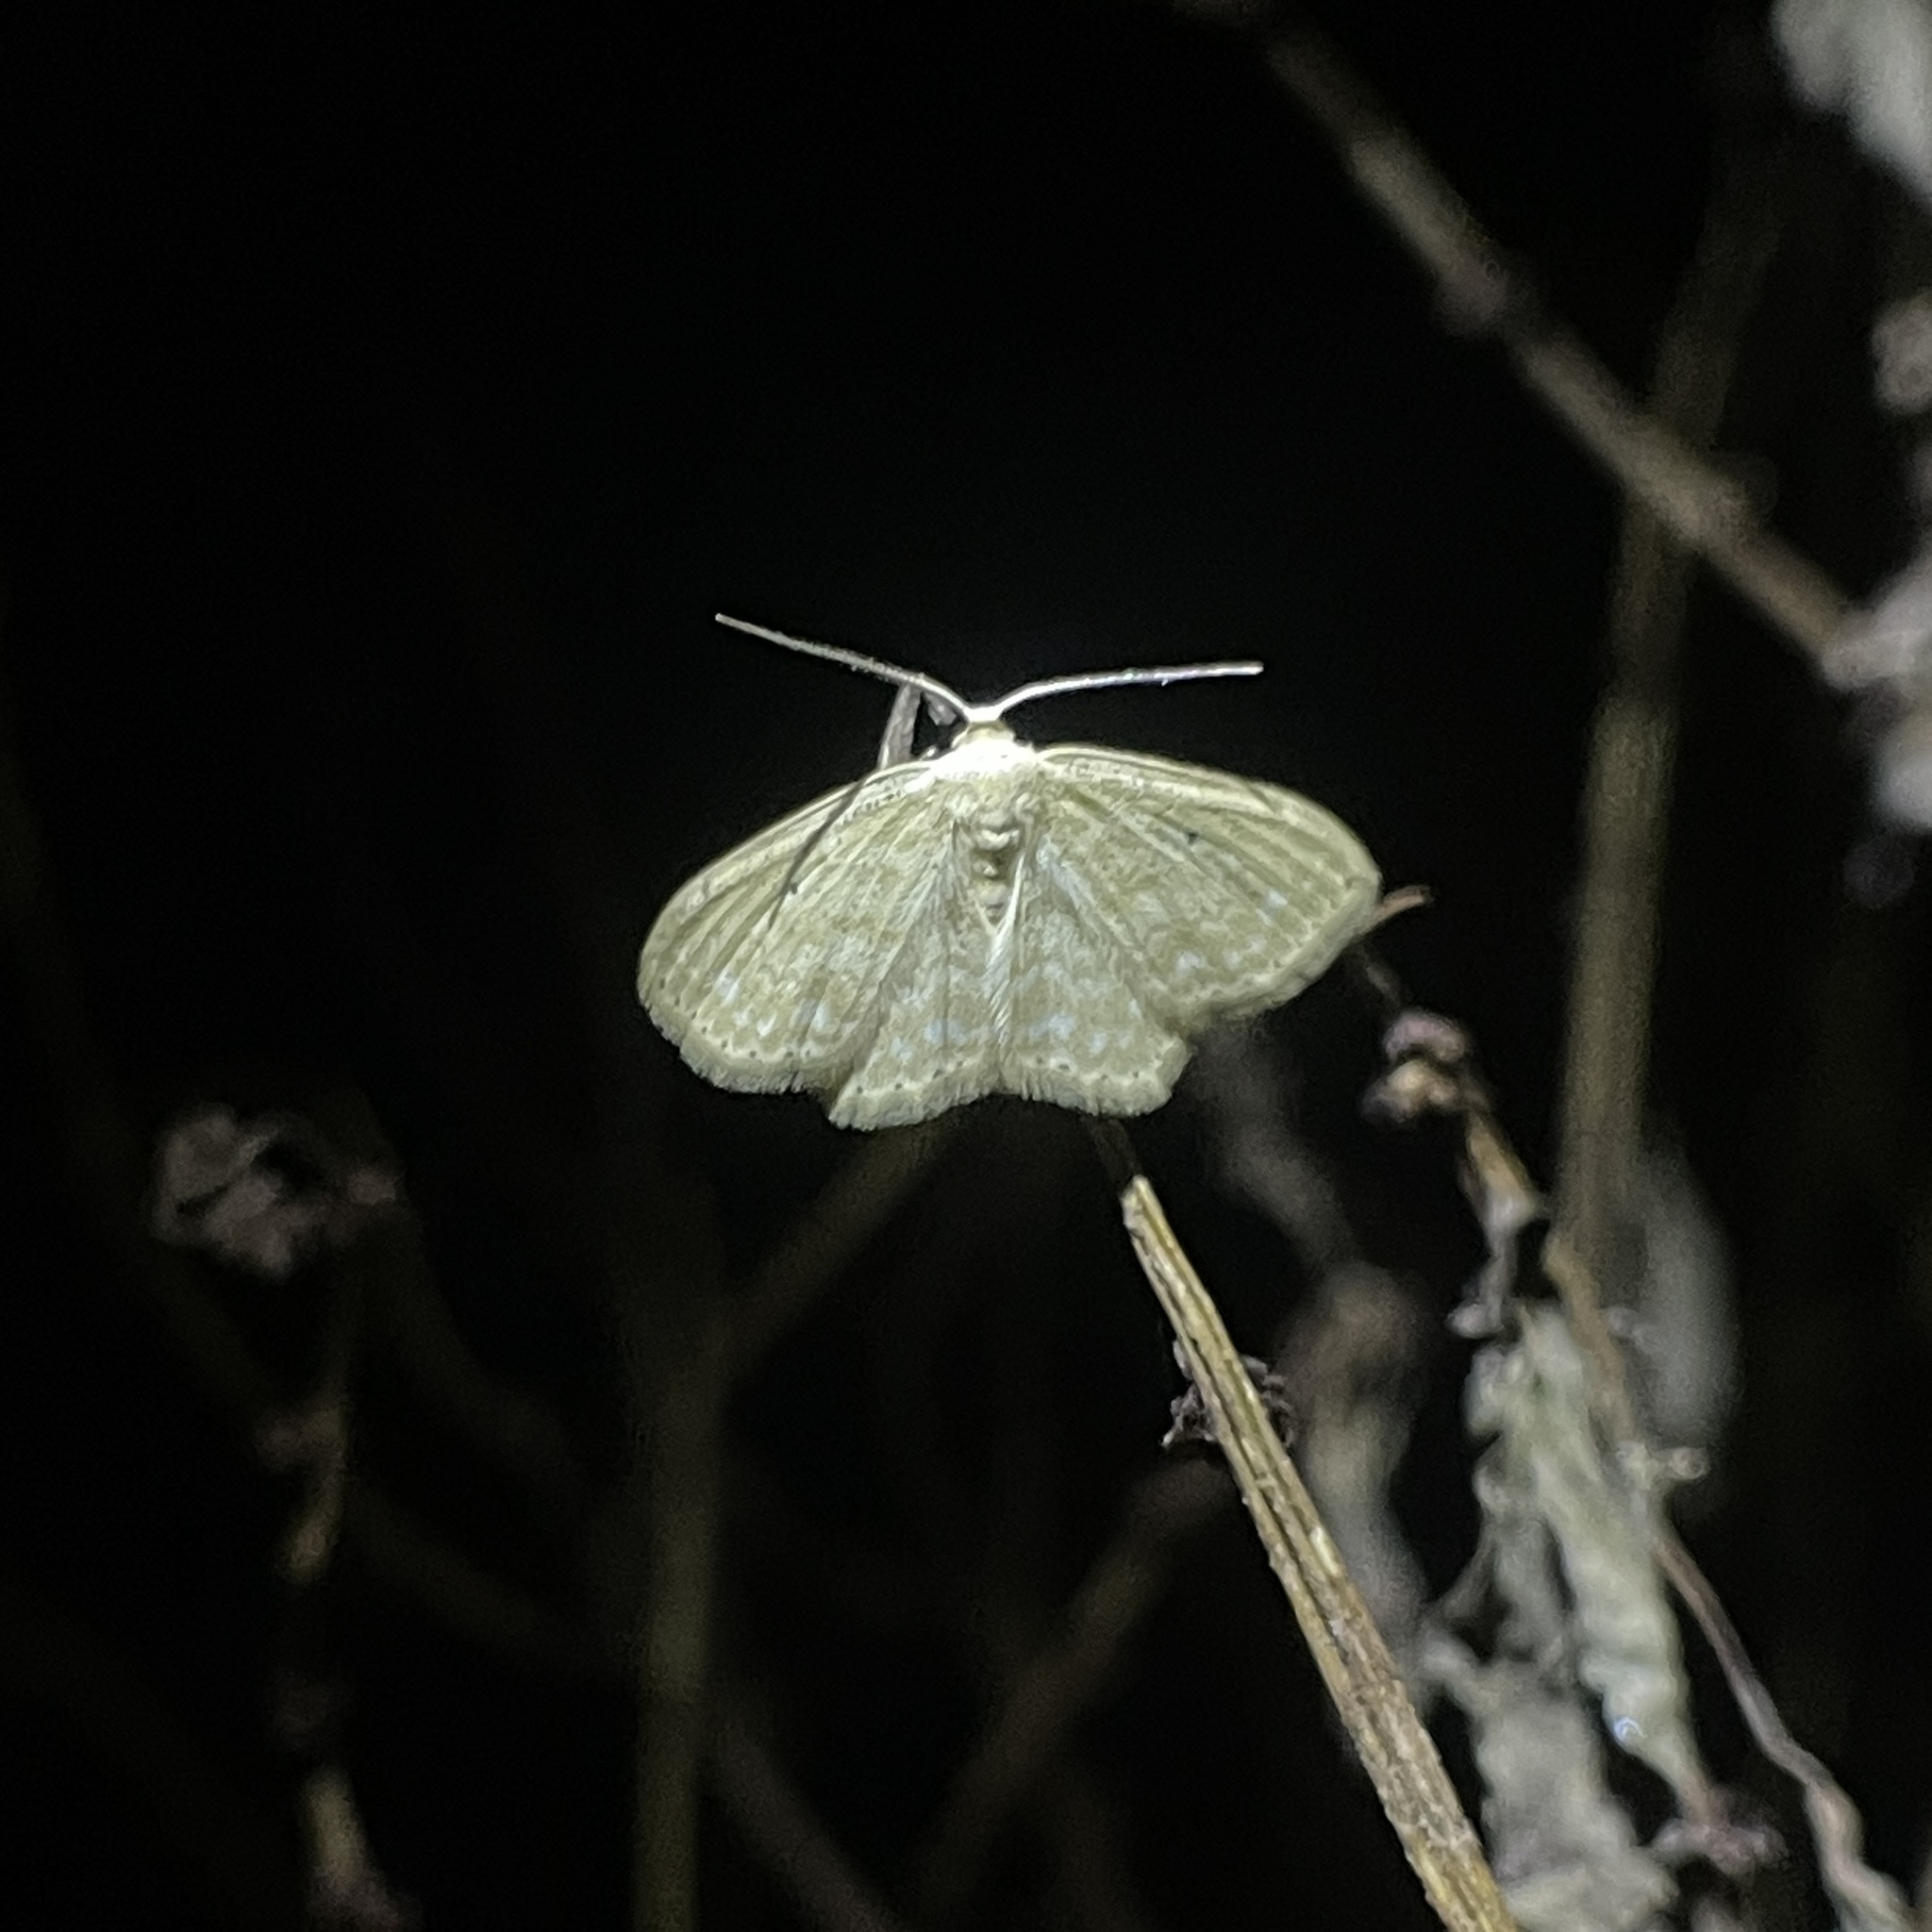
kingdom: Animalia
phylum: Arthropoda
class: Insecta
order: Lepidoptera
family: Geometridae
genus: Scopula
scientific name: Scopula apparitaria
